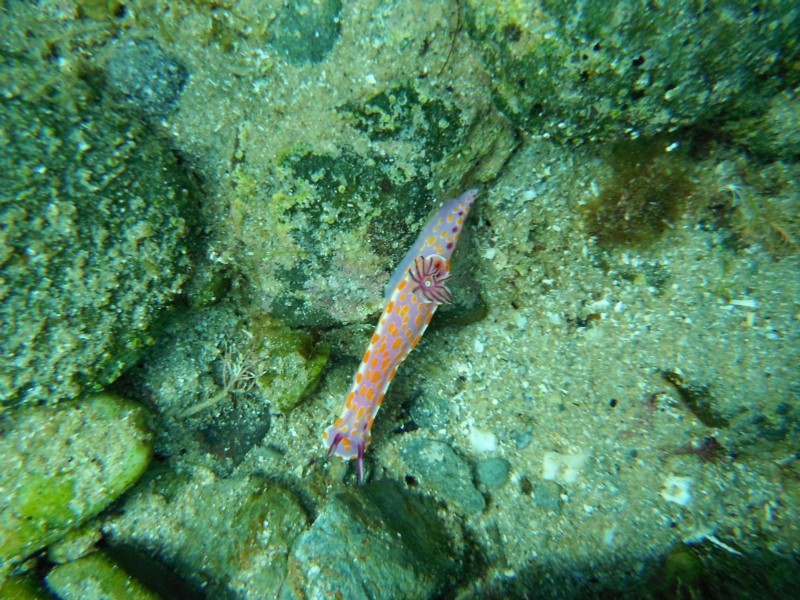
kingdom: Animalia
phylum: Mollusca
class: Gastropoda
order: Nudibranchia
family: Chromodorididae
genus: Ceratosoma
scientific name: Ceratosoma amoenum
